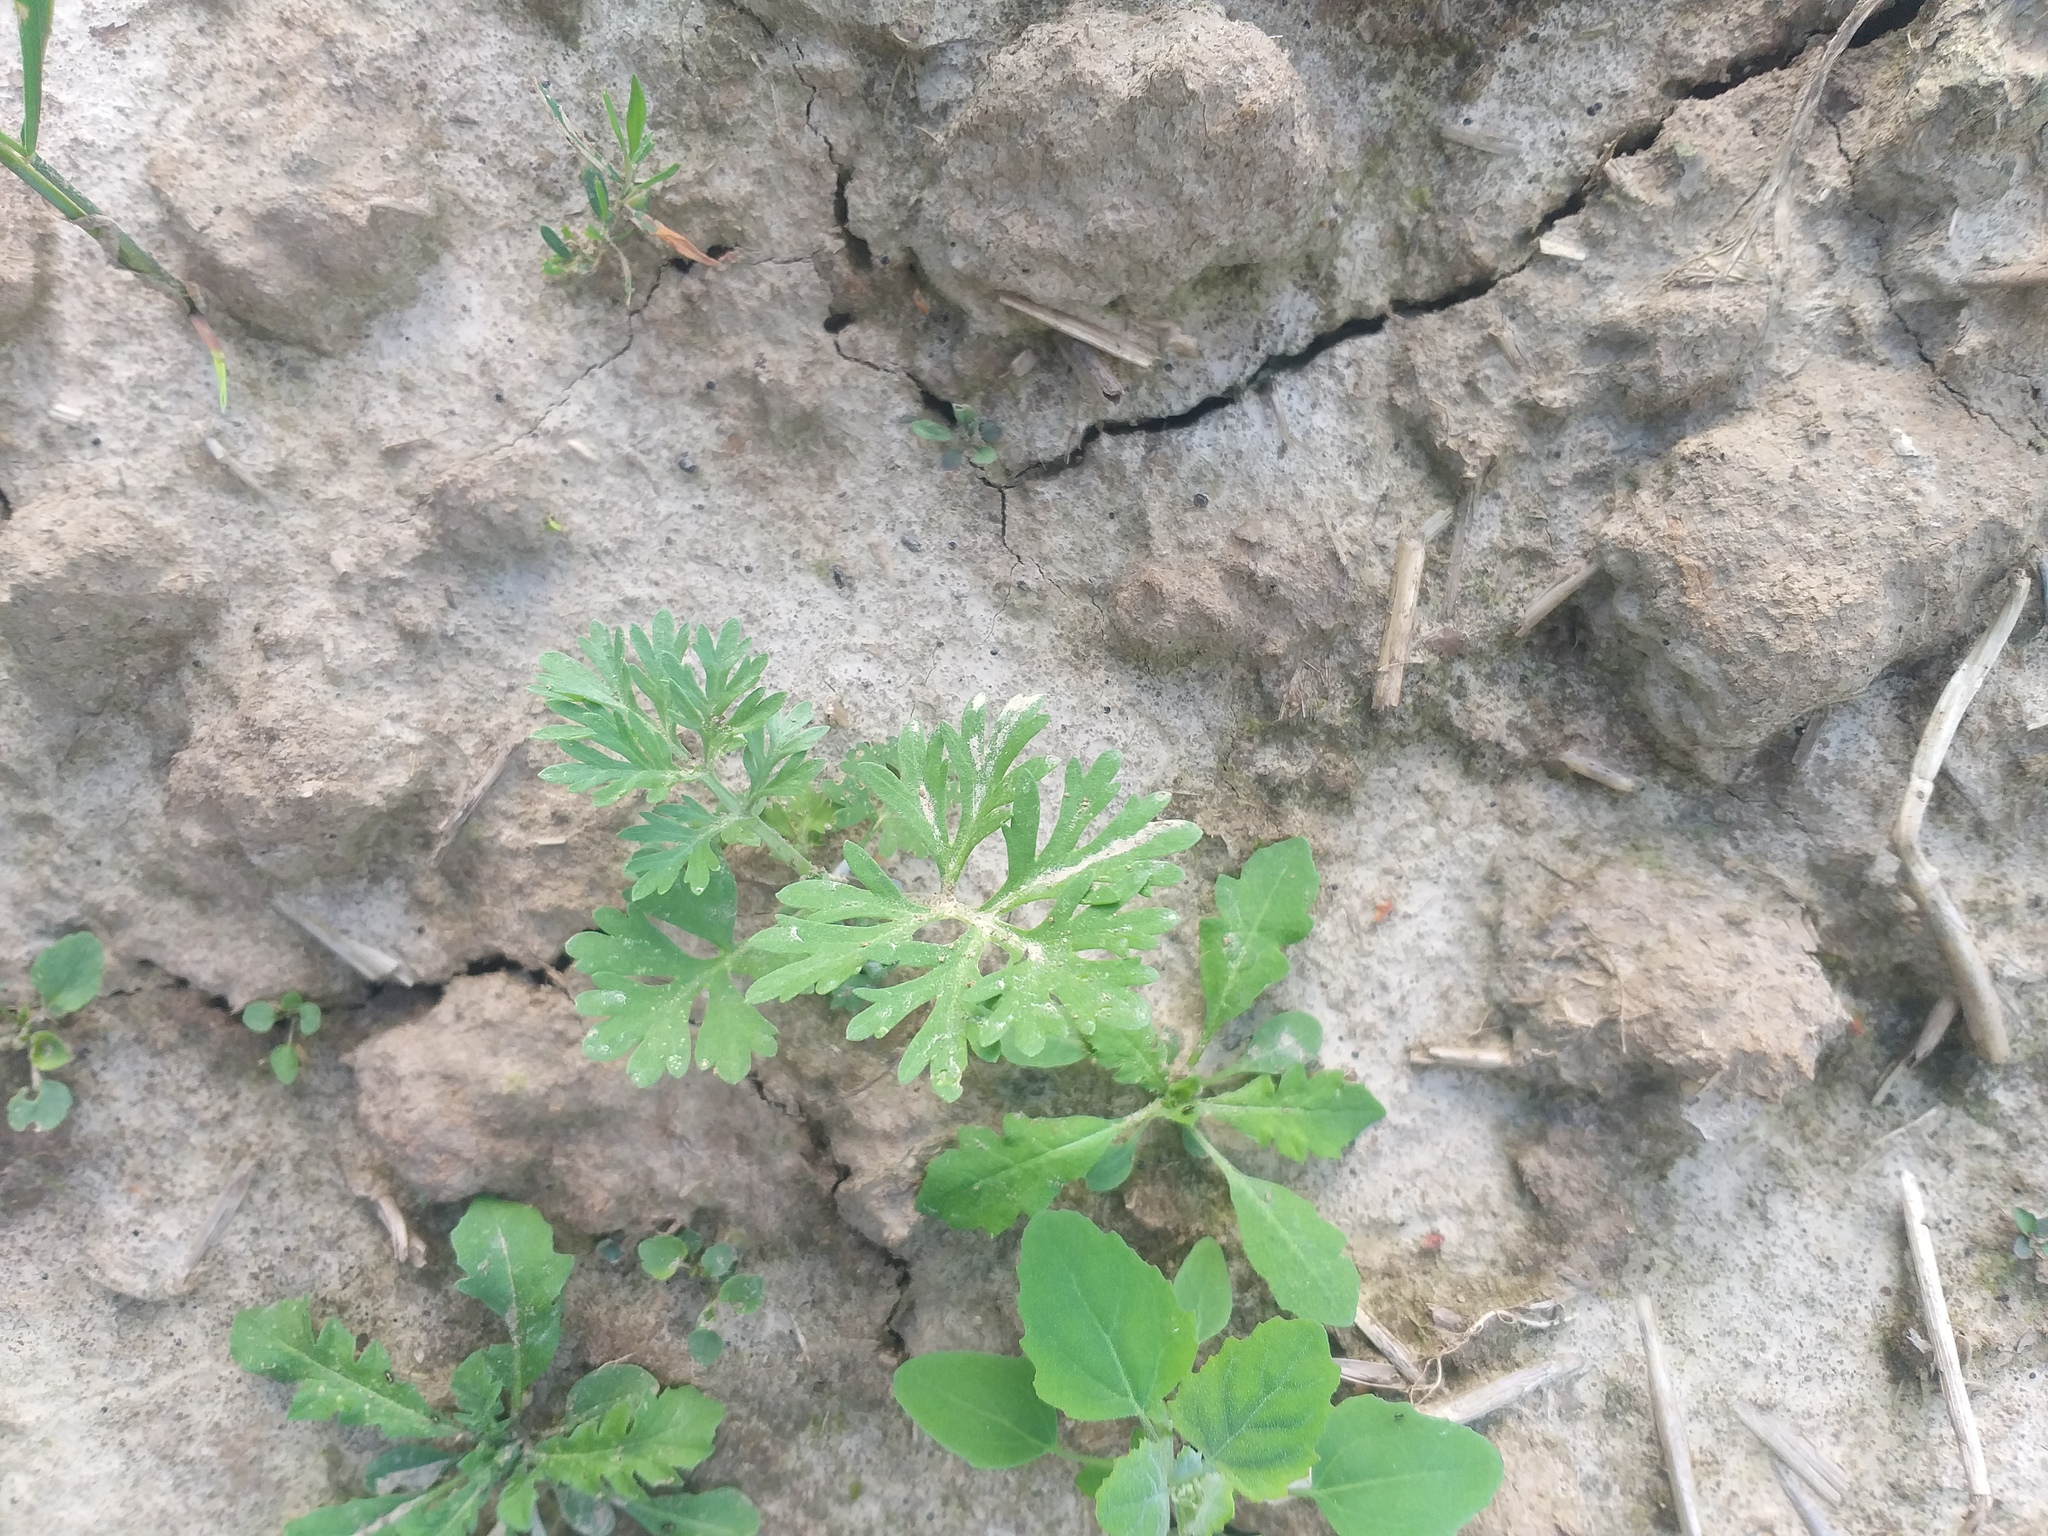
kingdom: Plantae
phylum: Tracheophyta
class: Magnoliopsida
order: Asterales
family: Asteraceae
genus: Artemisia
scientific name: Artemisia absinthium
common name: Wormwood
